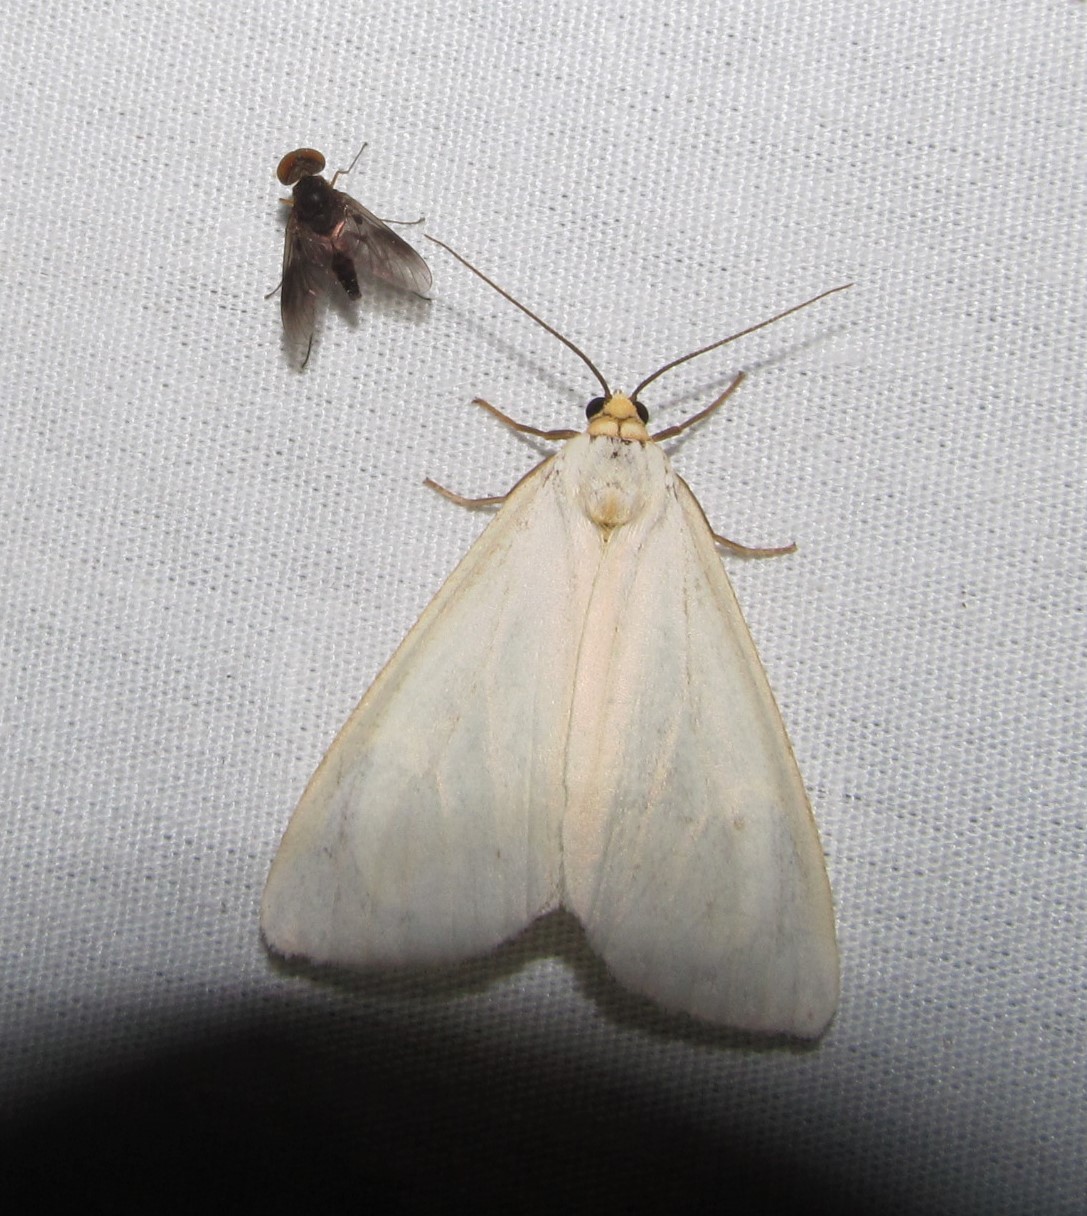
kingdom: Animalia
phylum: Arthropoda
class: Insecta
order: Lepidoptera
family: Erebidae
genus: Cycnia
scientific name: Cycnia tenera
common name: Delicate cycnia moth
